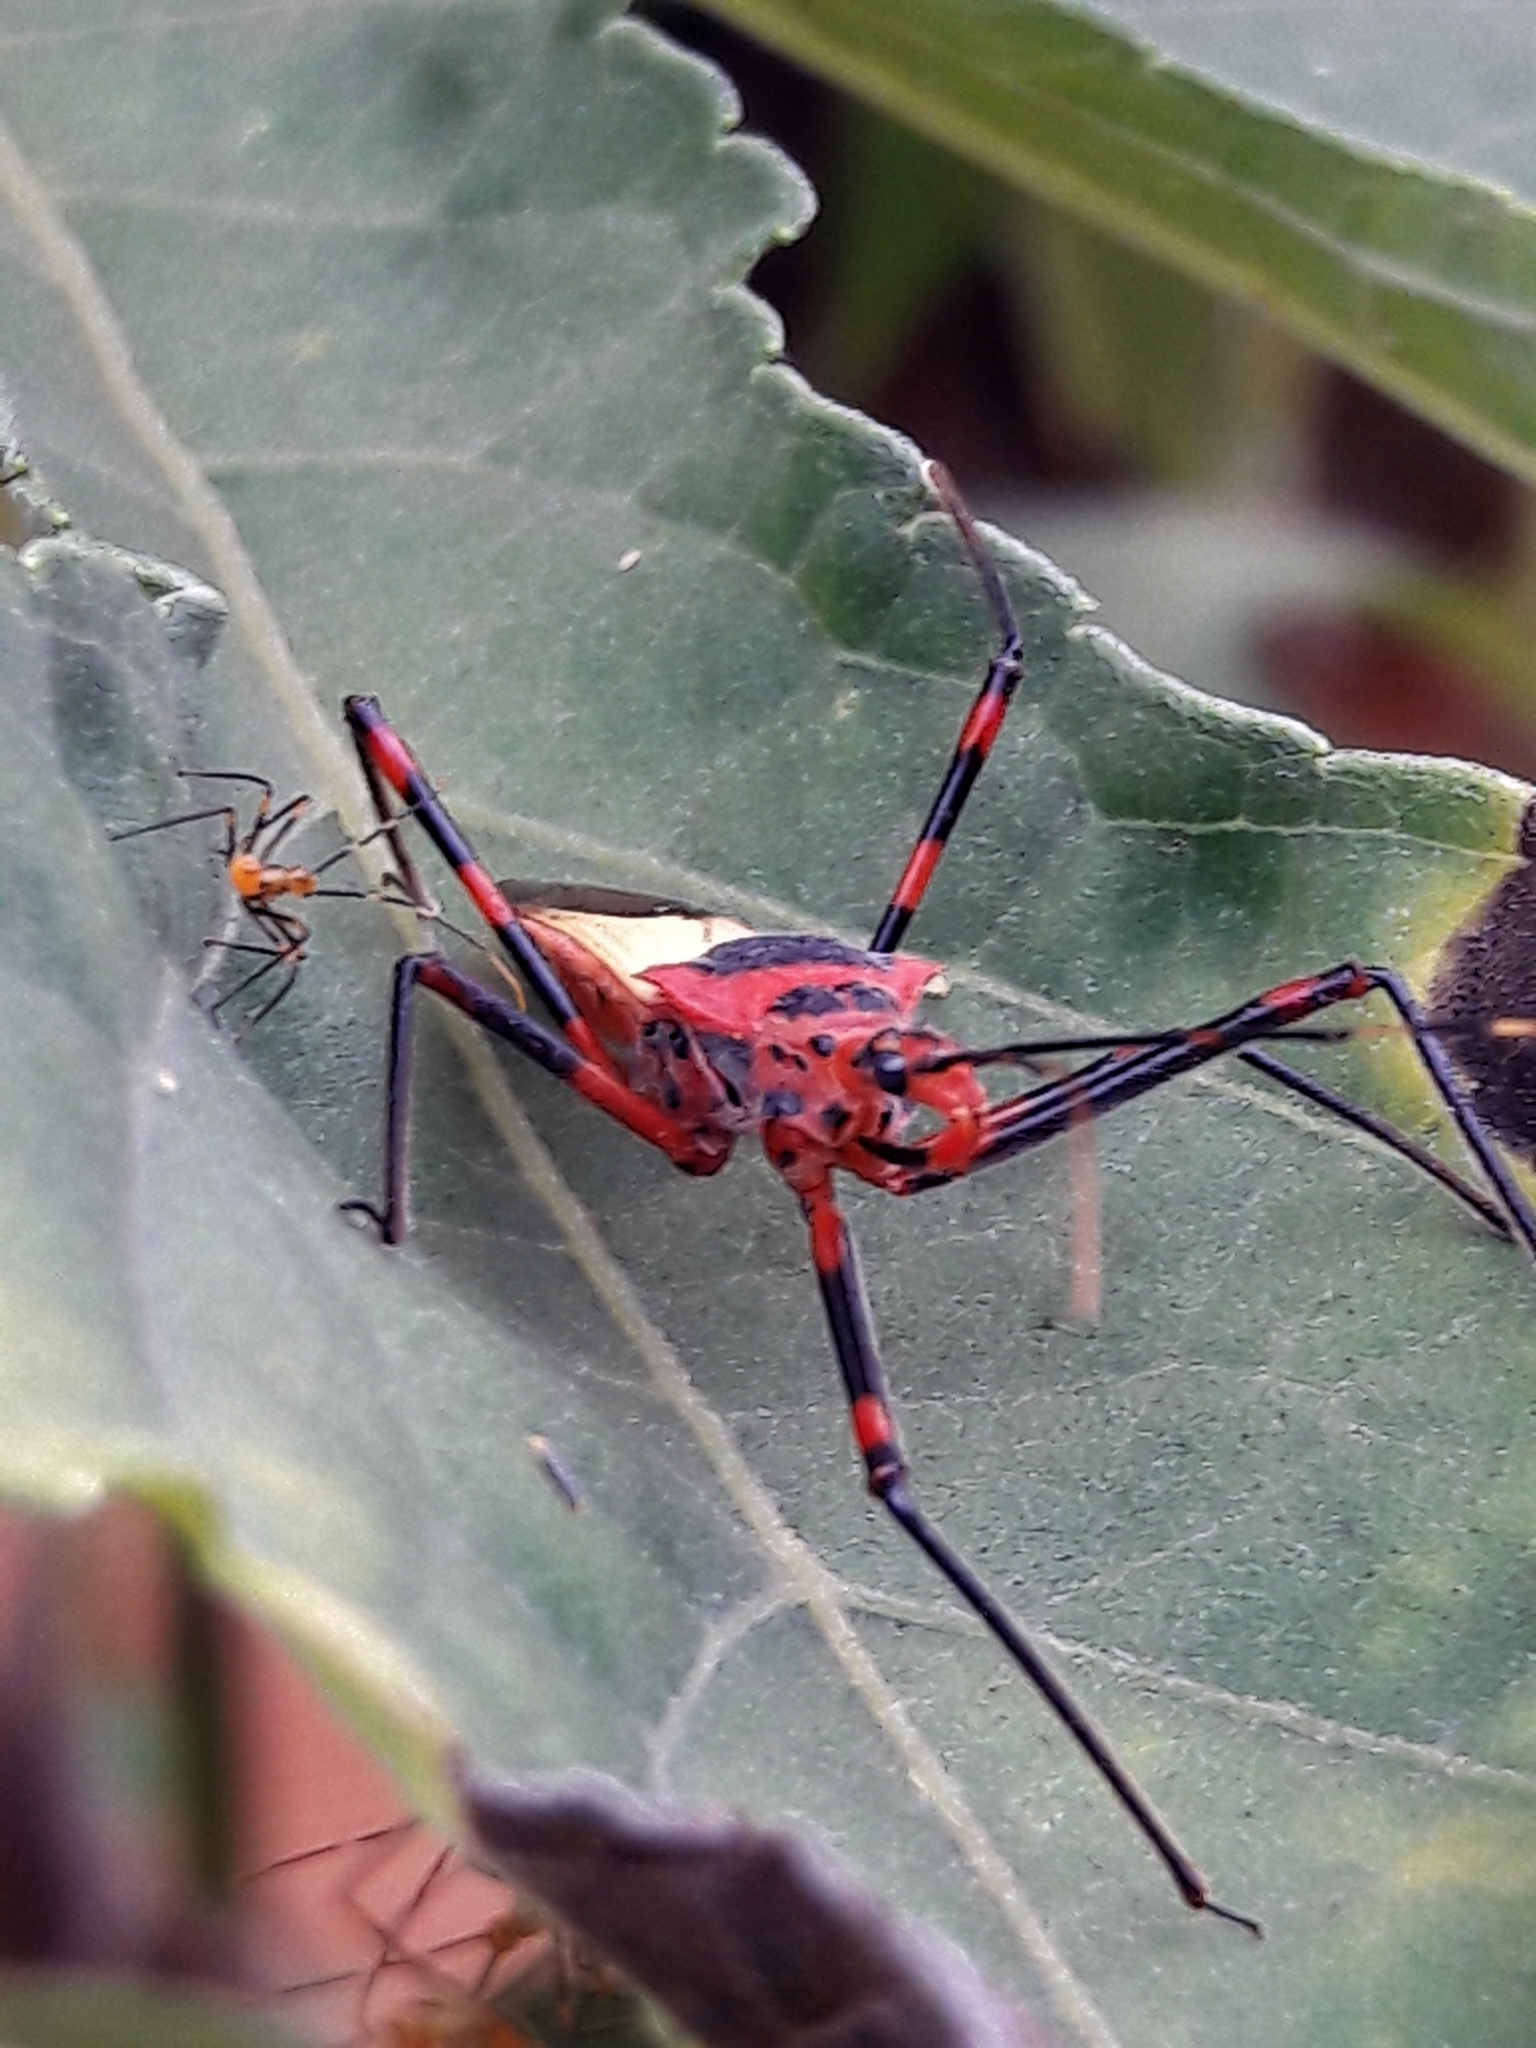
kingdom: Animalia
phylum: Arthropoda
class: Insecta
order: Hemiptera
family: Reduviidae
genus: Zelus
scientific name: Zelus armillatus
